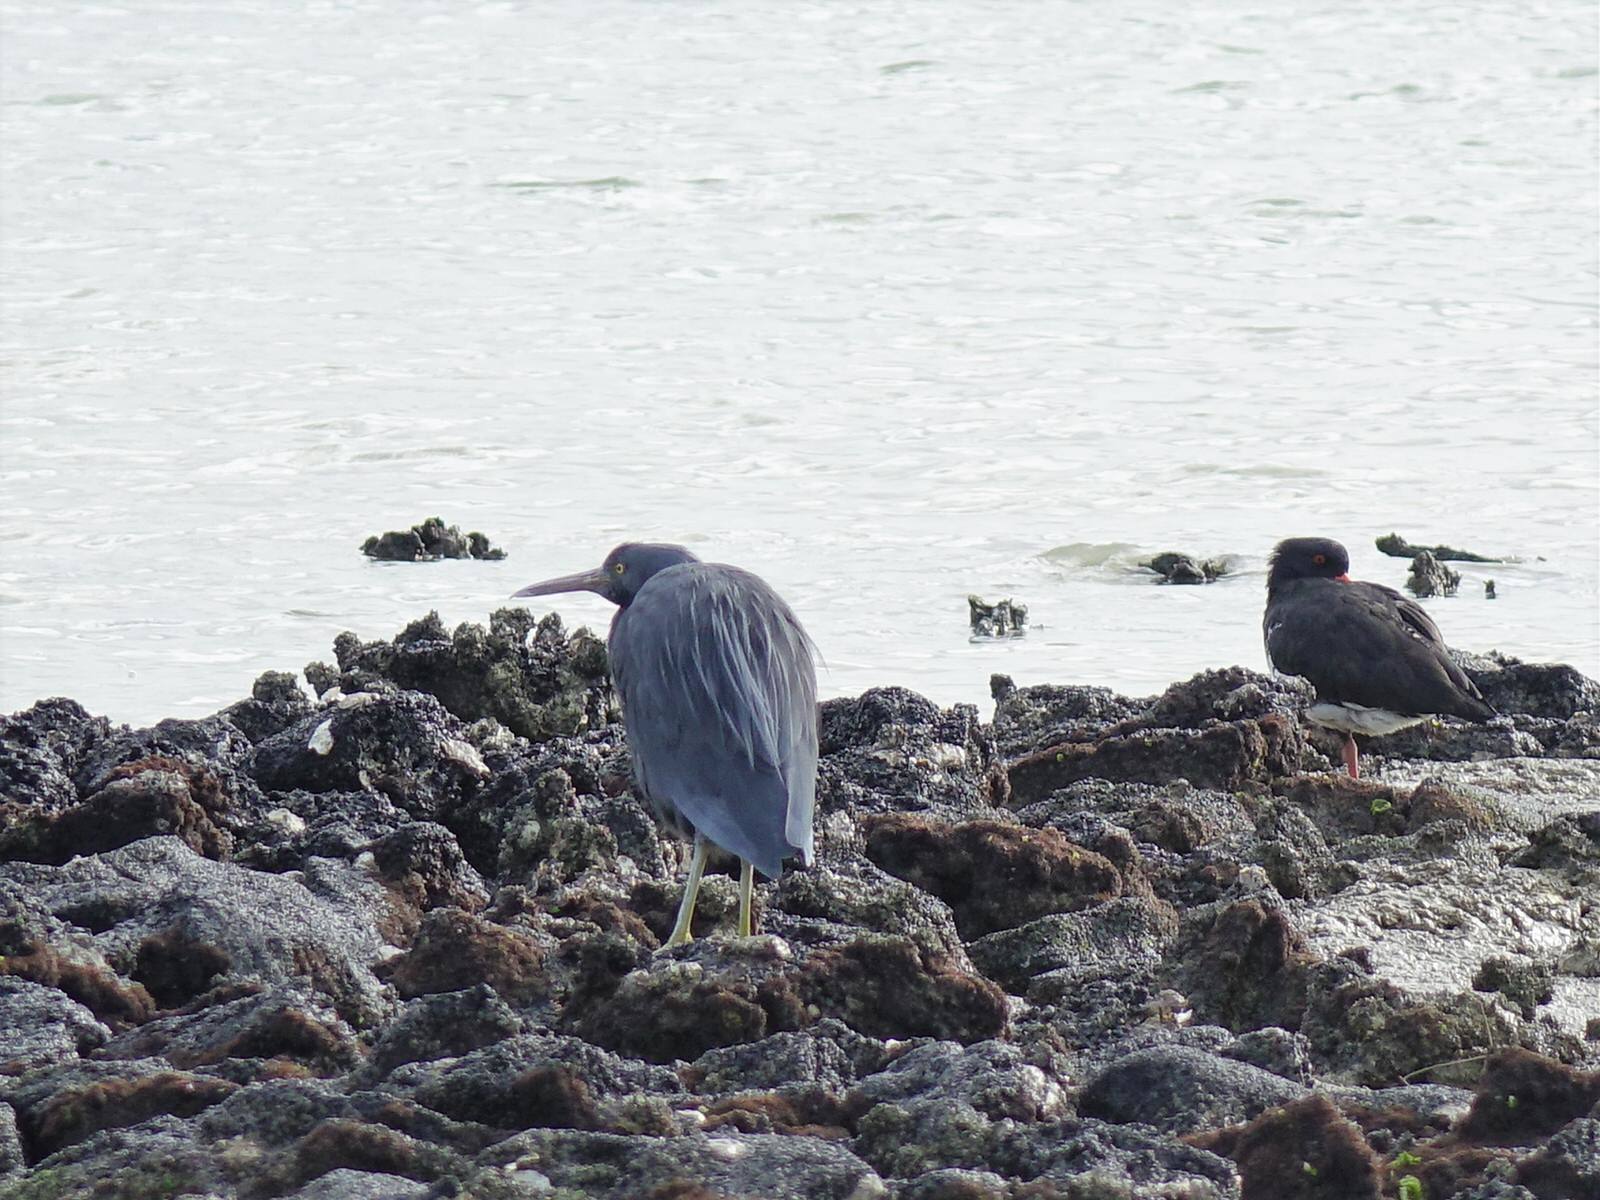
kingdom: Animalia
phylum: Chordata
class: Aves
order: Pelecaniformes
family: Ardeidae
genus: Egretta
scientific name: Egretta sacra
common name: Pacific reef heron
